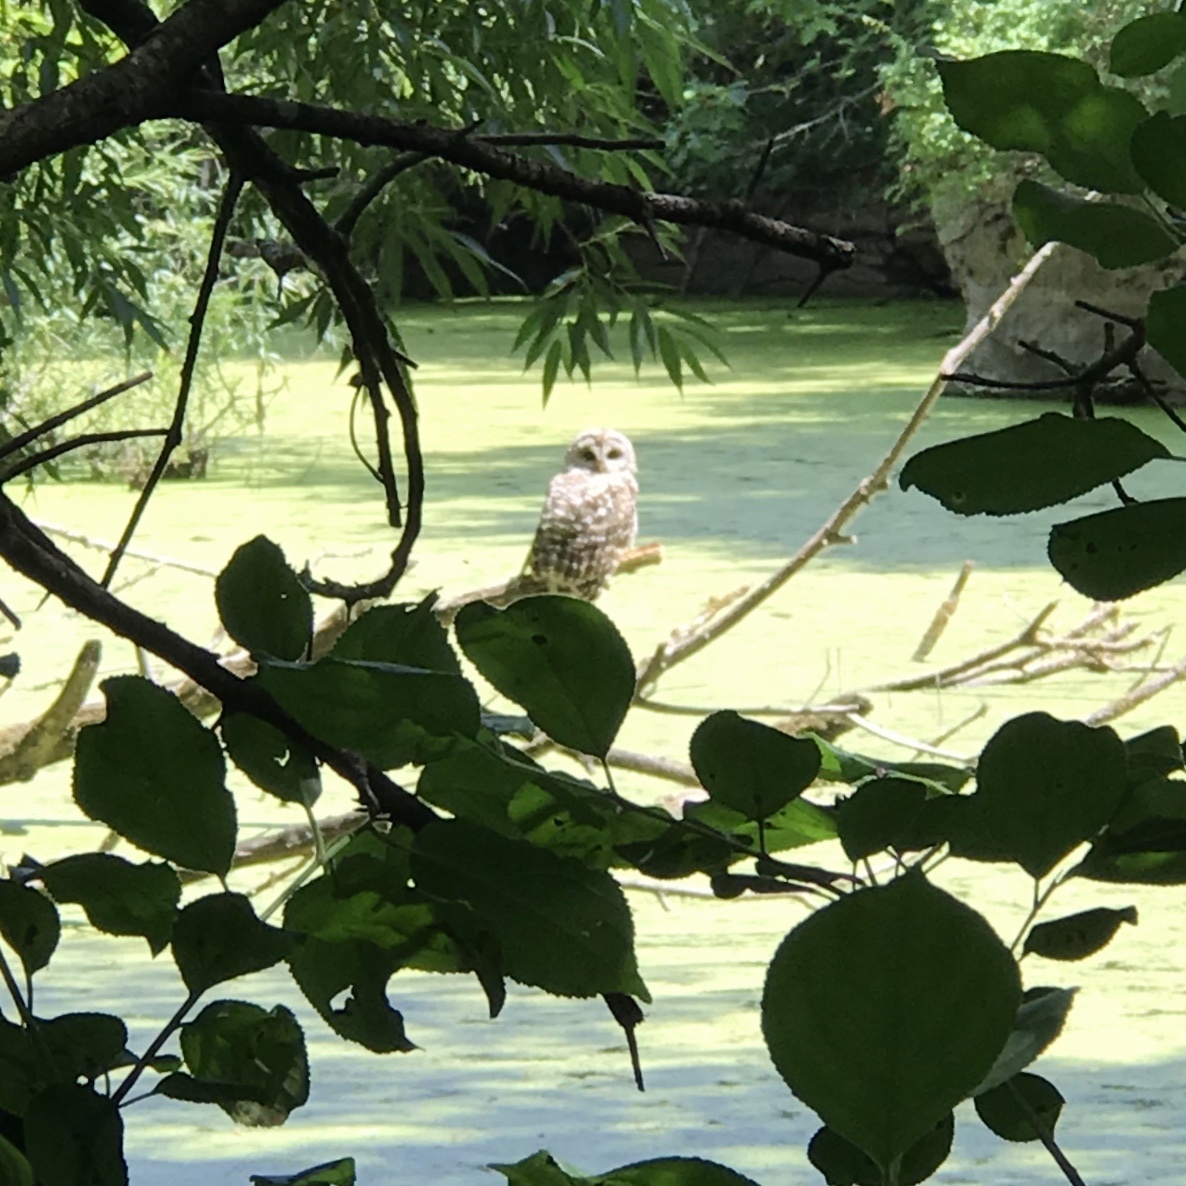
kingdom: Animalia
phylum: Chordata
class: Aves
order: Strigiformes
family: Strigidae
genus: Strix
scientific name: Strix varia
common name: Barred owl
